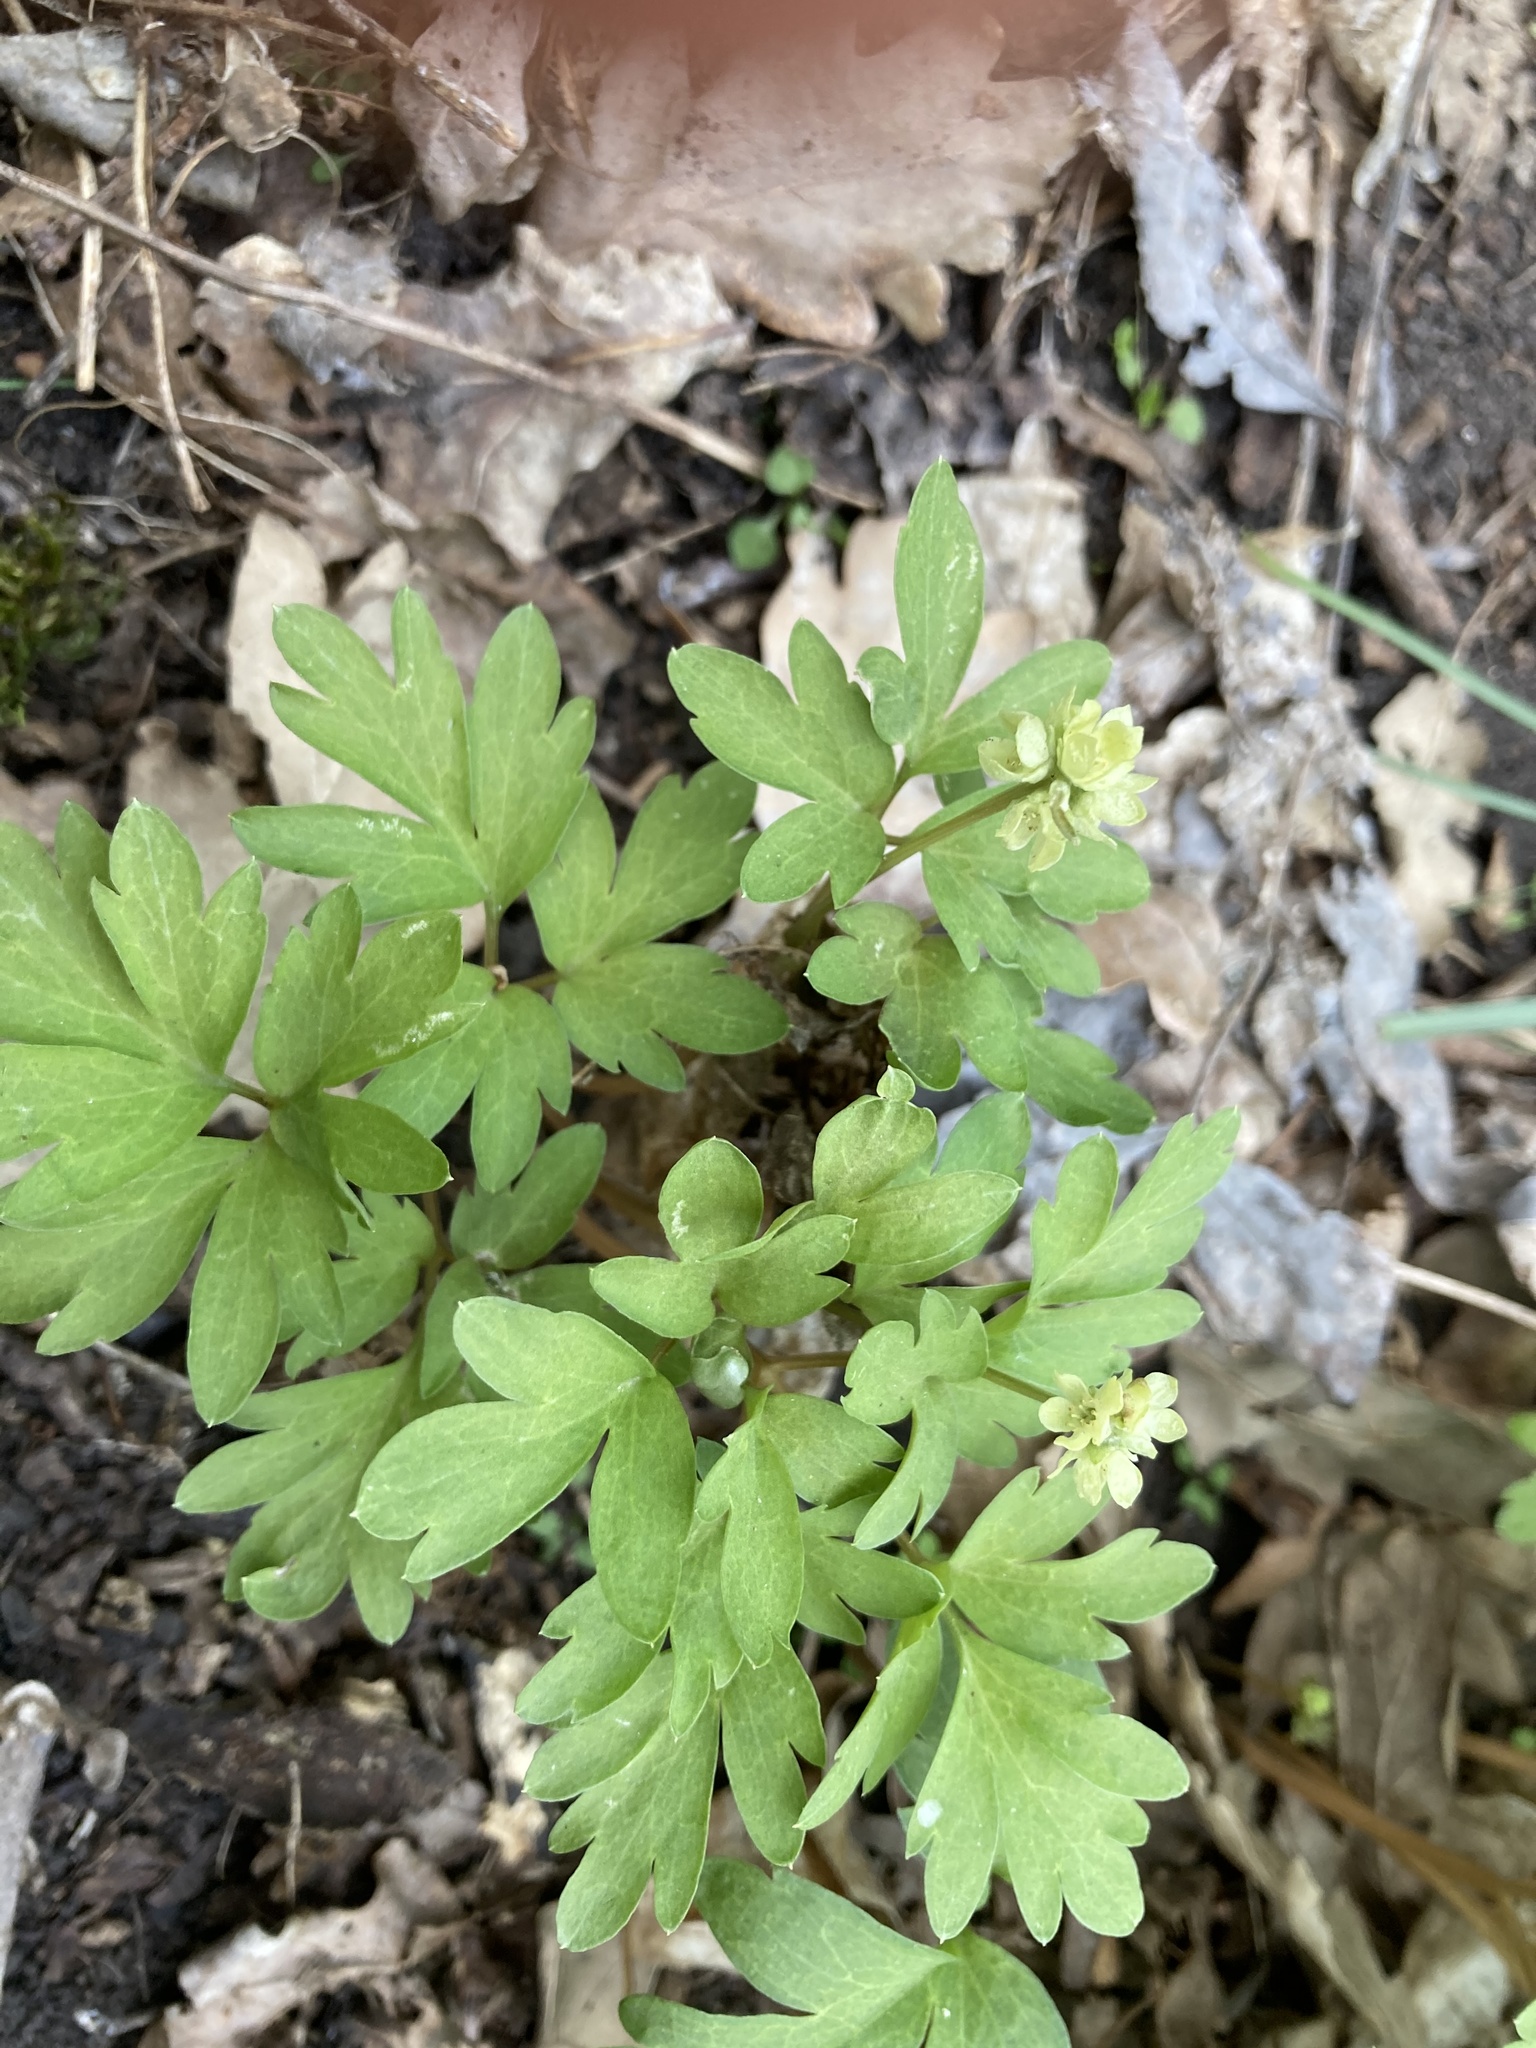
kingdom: Plantae
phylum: Tracheophyta
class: Magnoliopsida
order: Dipsacales
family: Viburnaceae
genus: Adoxa
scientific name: Adoxa moschatellina
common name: Moschatel
